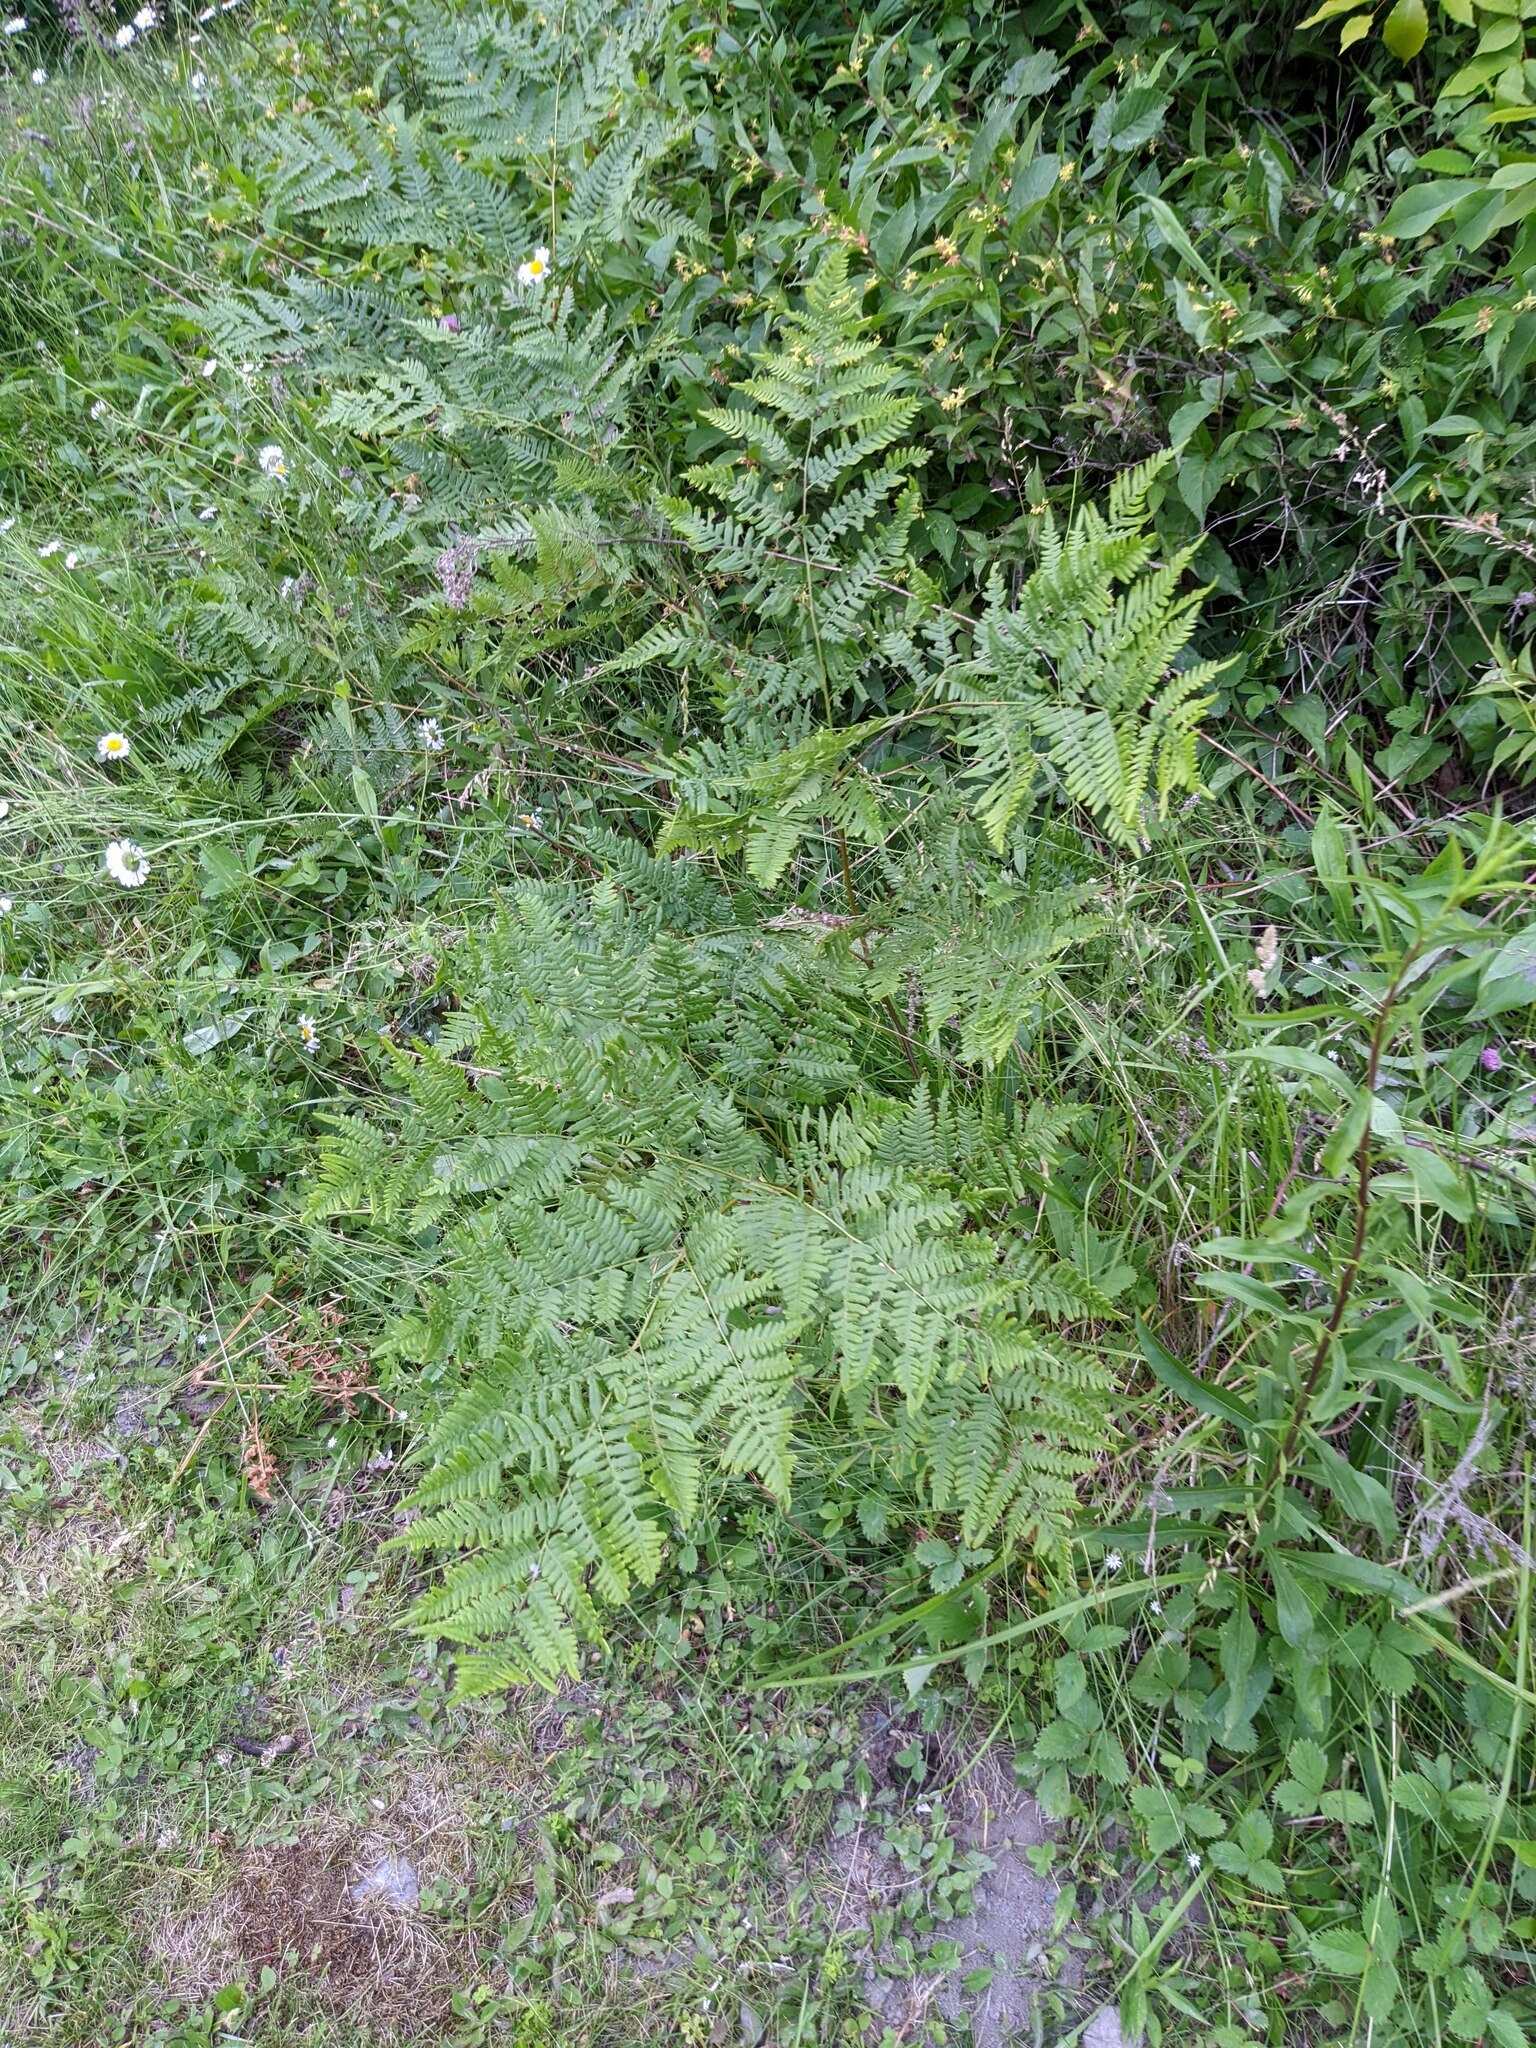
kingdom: Plantae
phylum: Tracheophyta
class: Polypodiopsida
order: Polypodiales
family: Dennstaedtiaceae
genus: Pteridium
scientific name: Pteridium aquilinum
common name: Bracken
